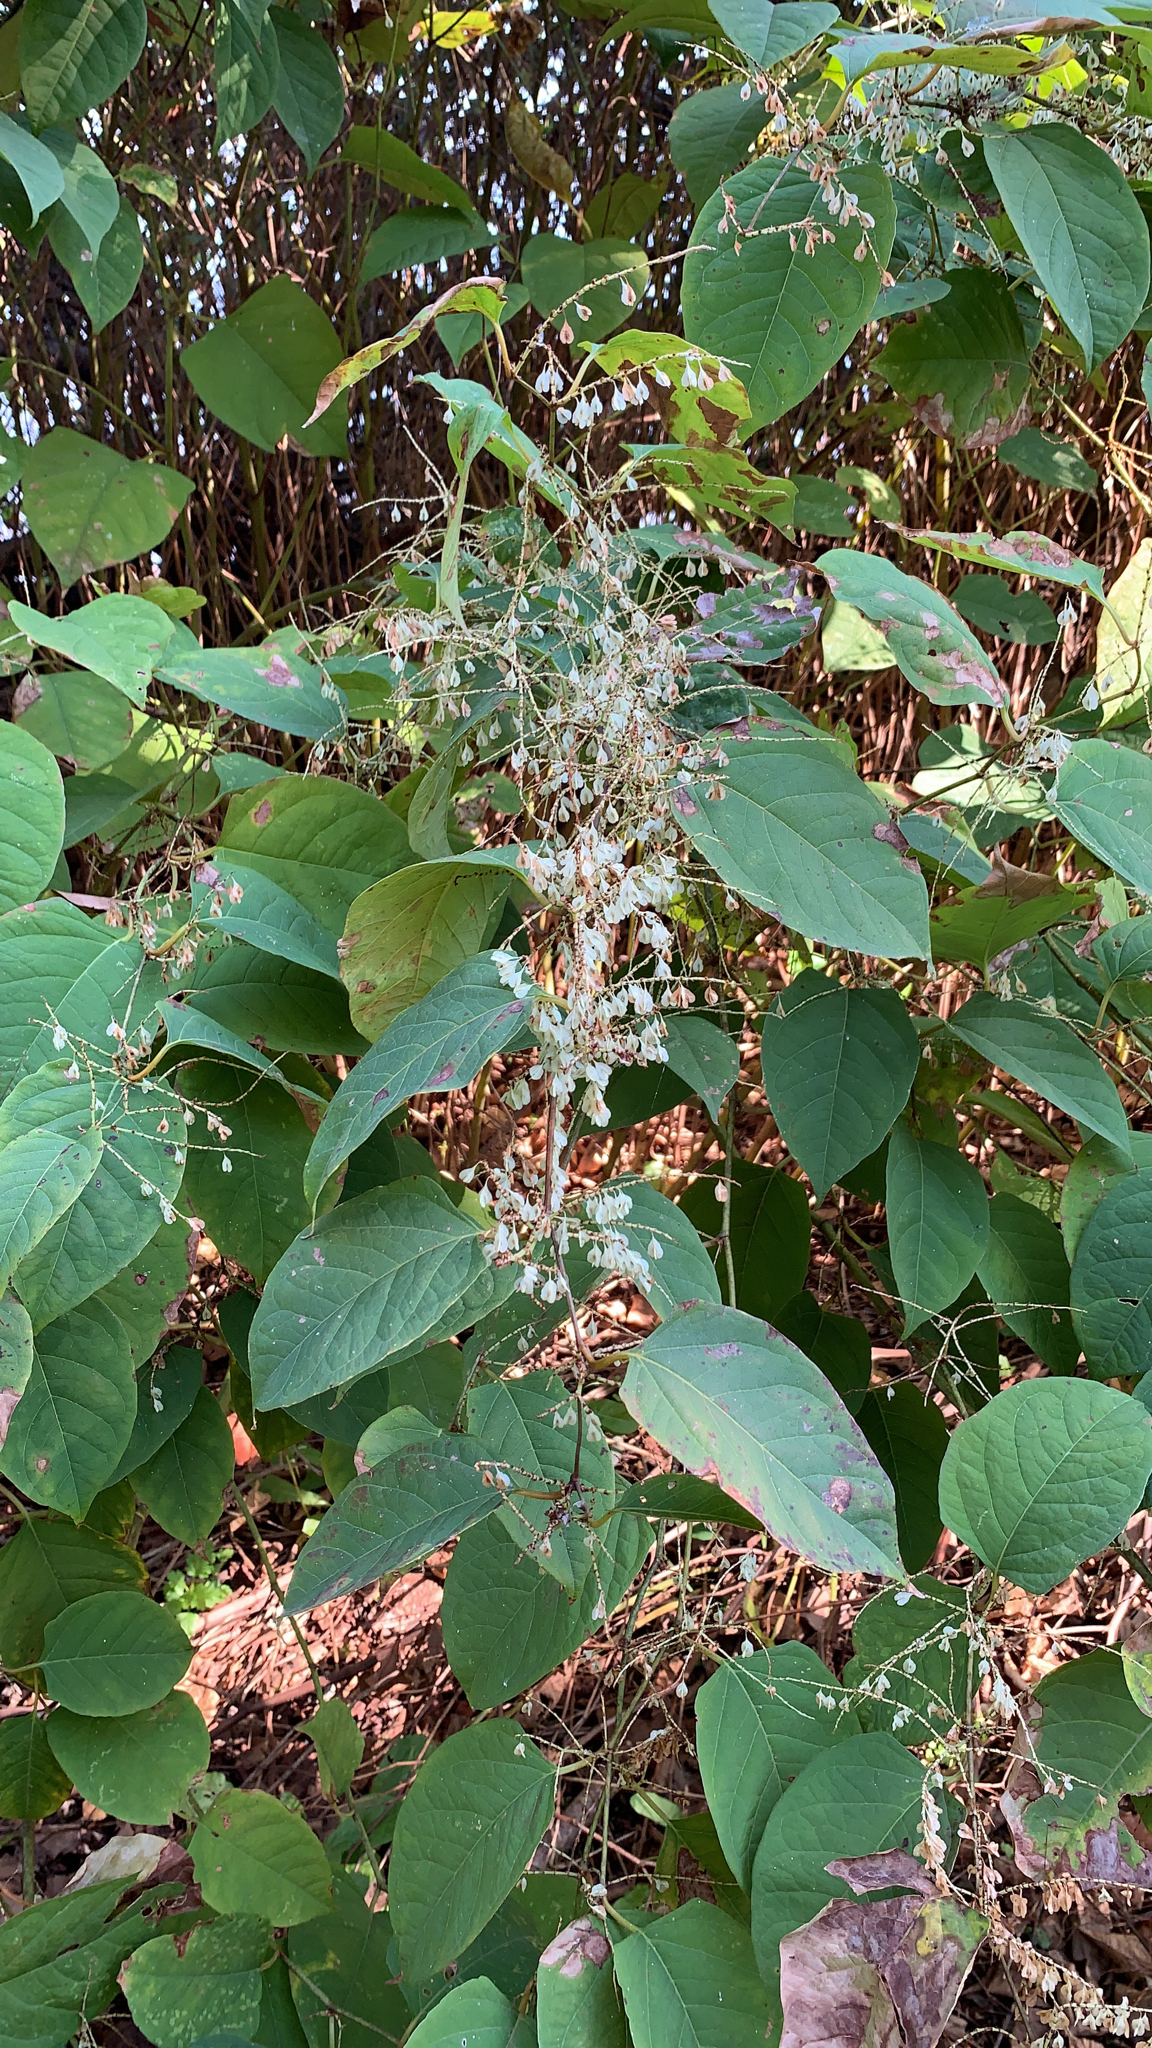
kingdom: Plantae
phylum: Tracheophyta
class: Magnoliopsida
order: Caryophyllales
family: Polygonaceae
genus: Reynoutria
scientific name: Reynoutria japonica
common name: Japanese knotweed
